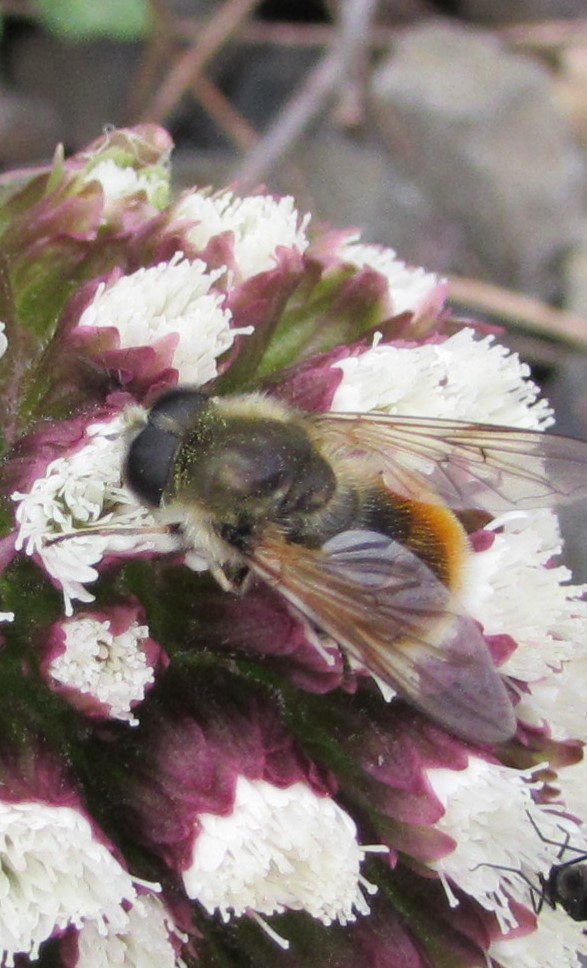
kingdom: Animalia
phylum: Arthropoda
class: Insecta
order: Diptera
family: Syrphidae
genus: Cheilosia
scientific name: Cheilosia corydon
